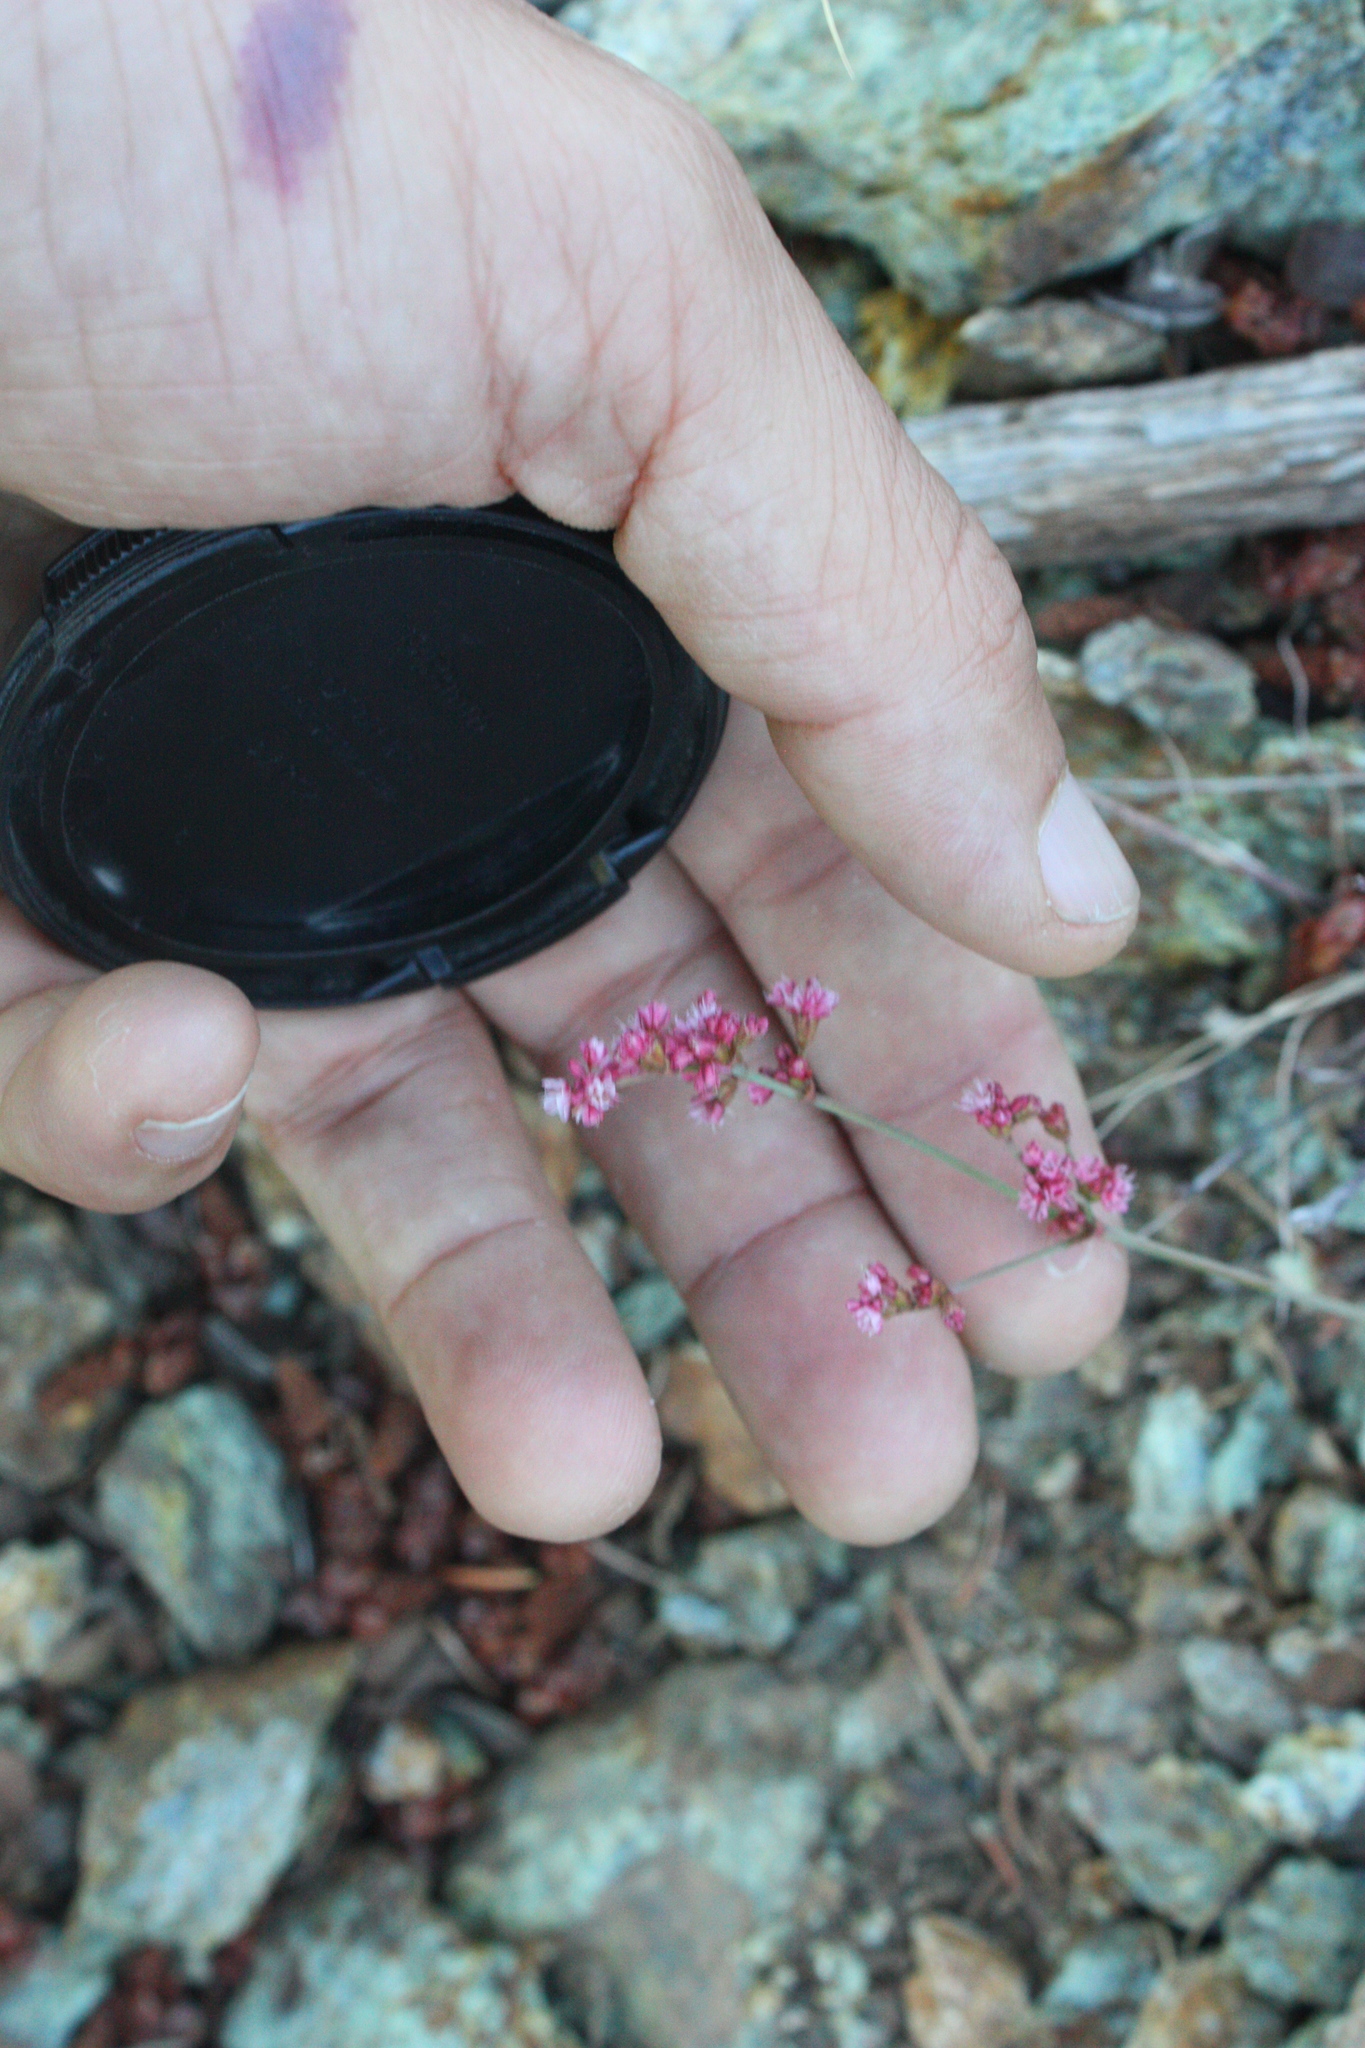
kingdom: Plantae
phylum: Tracheophyta
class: Magnoliopsida
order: Caryophyllales
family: Polygonaceae
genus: Eriogonum
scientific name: Eriogonum luteolum
